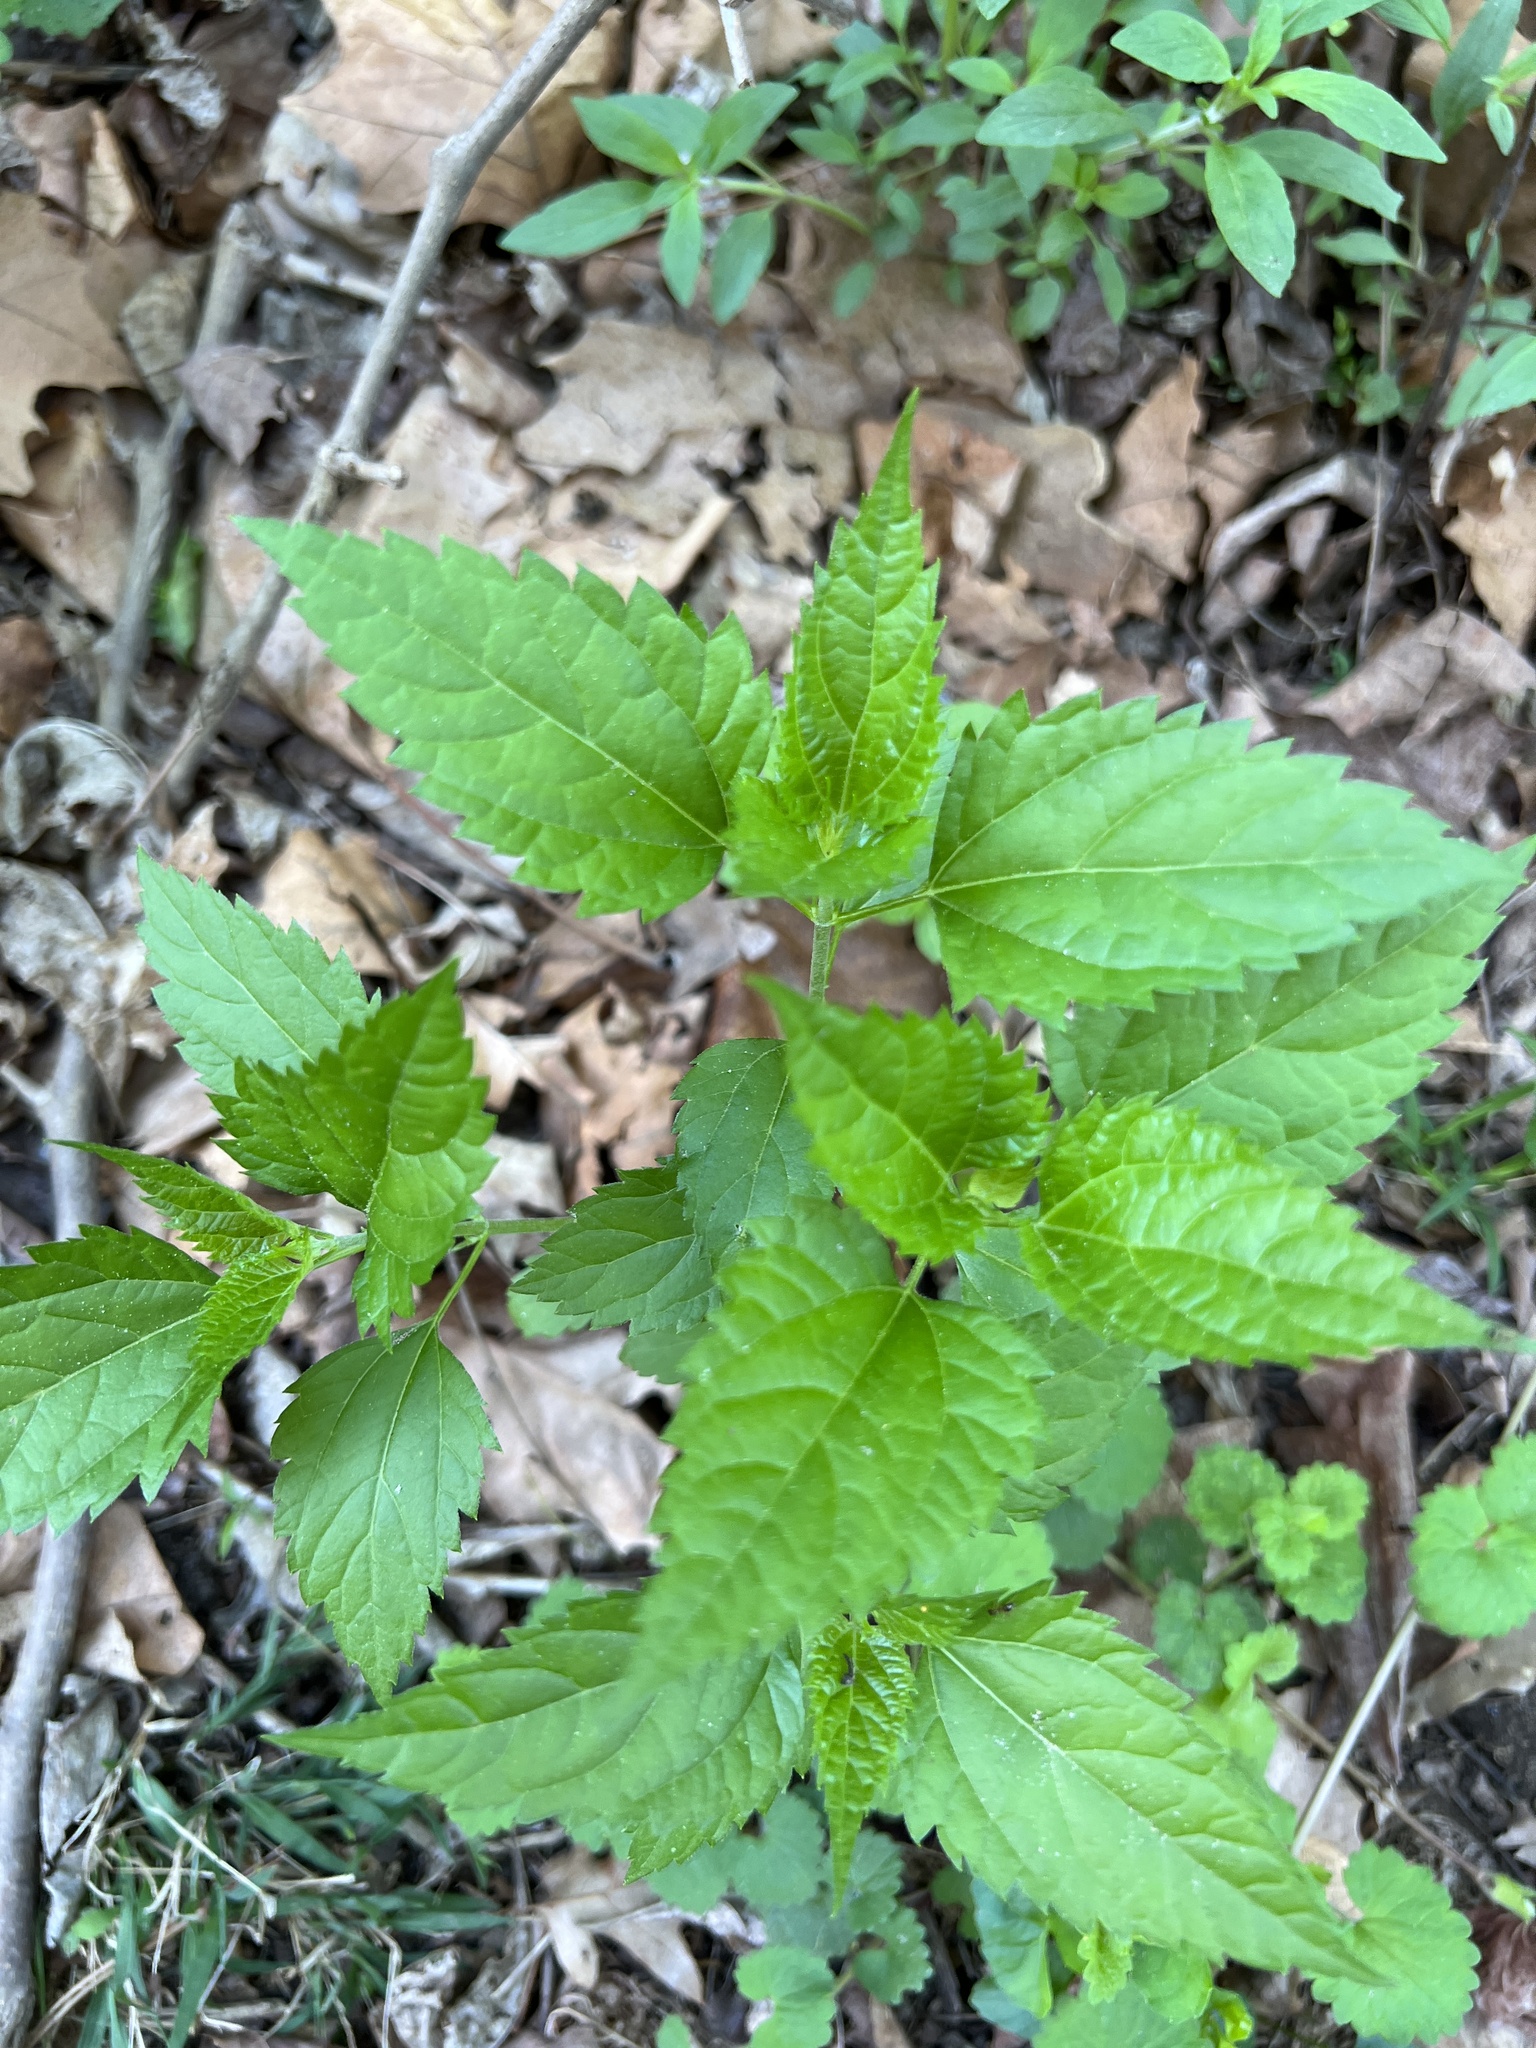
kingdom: Plantae
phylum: Tracheophyta
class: Magnoliopsida
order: Asterales
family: Asteraceae
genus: Ageratina
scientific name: Ageratina altissima
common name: White snakeroot
